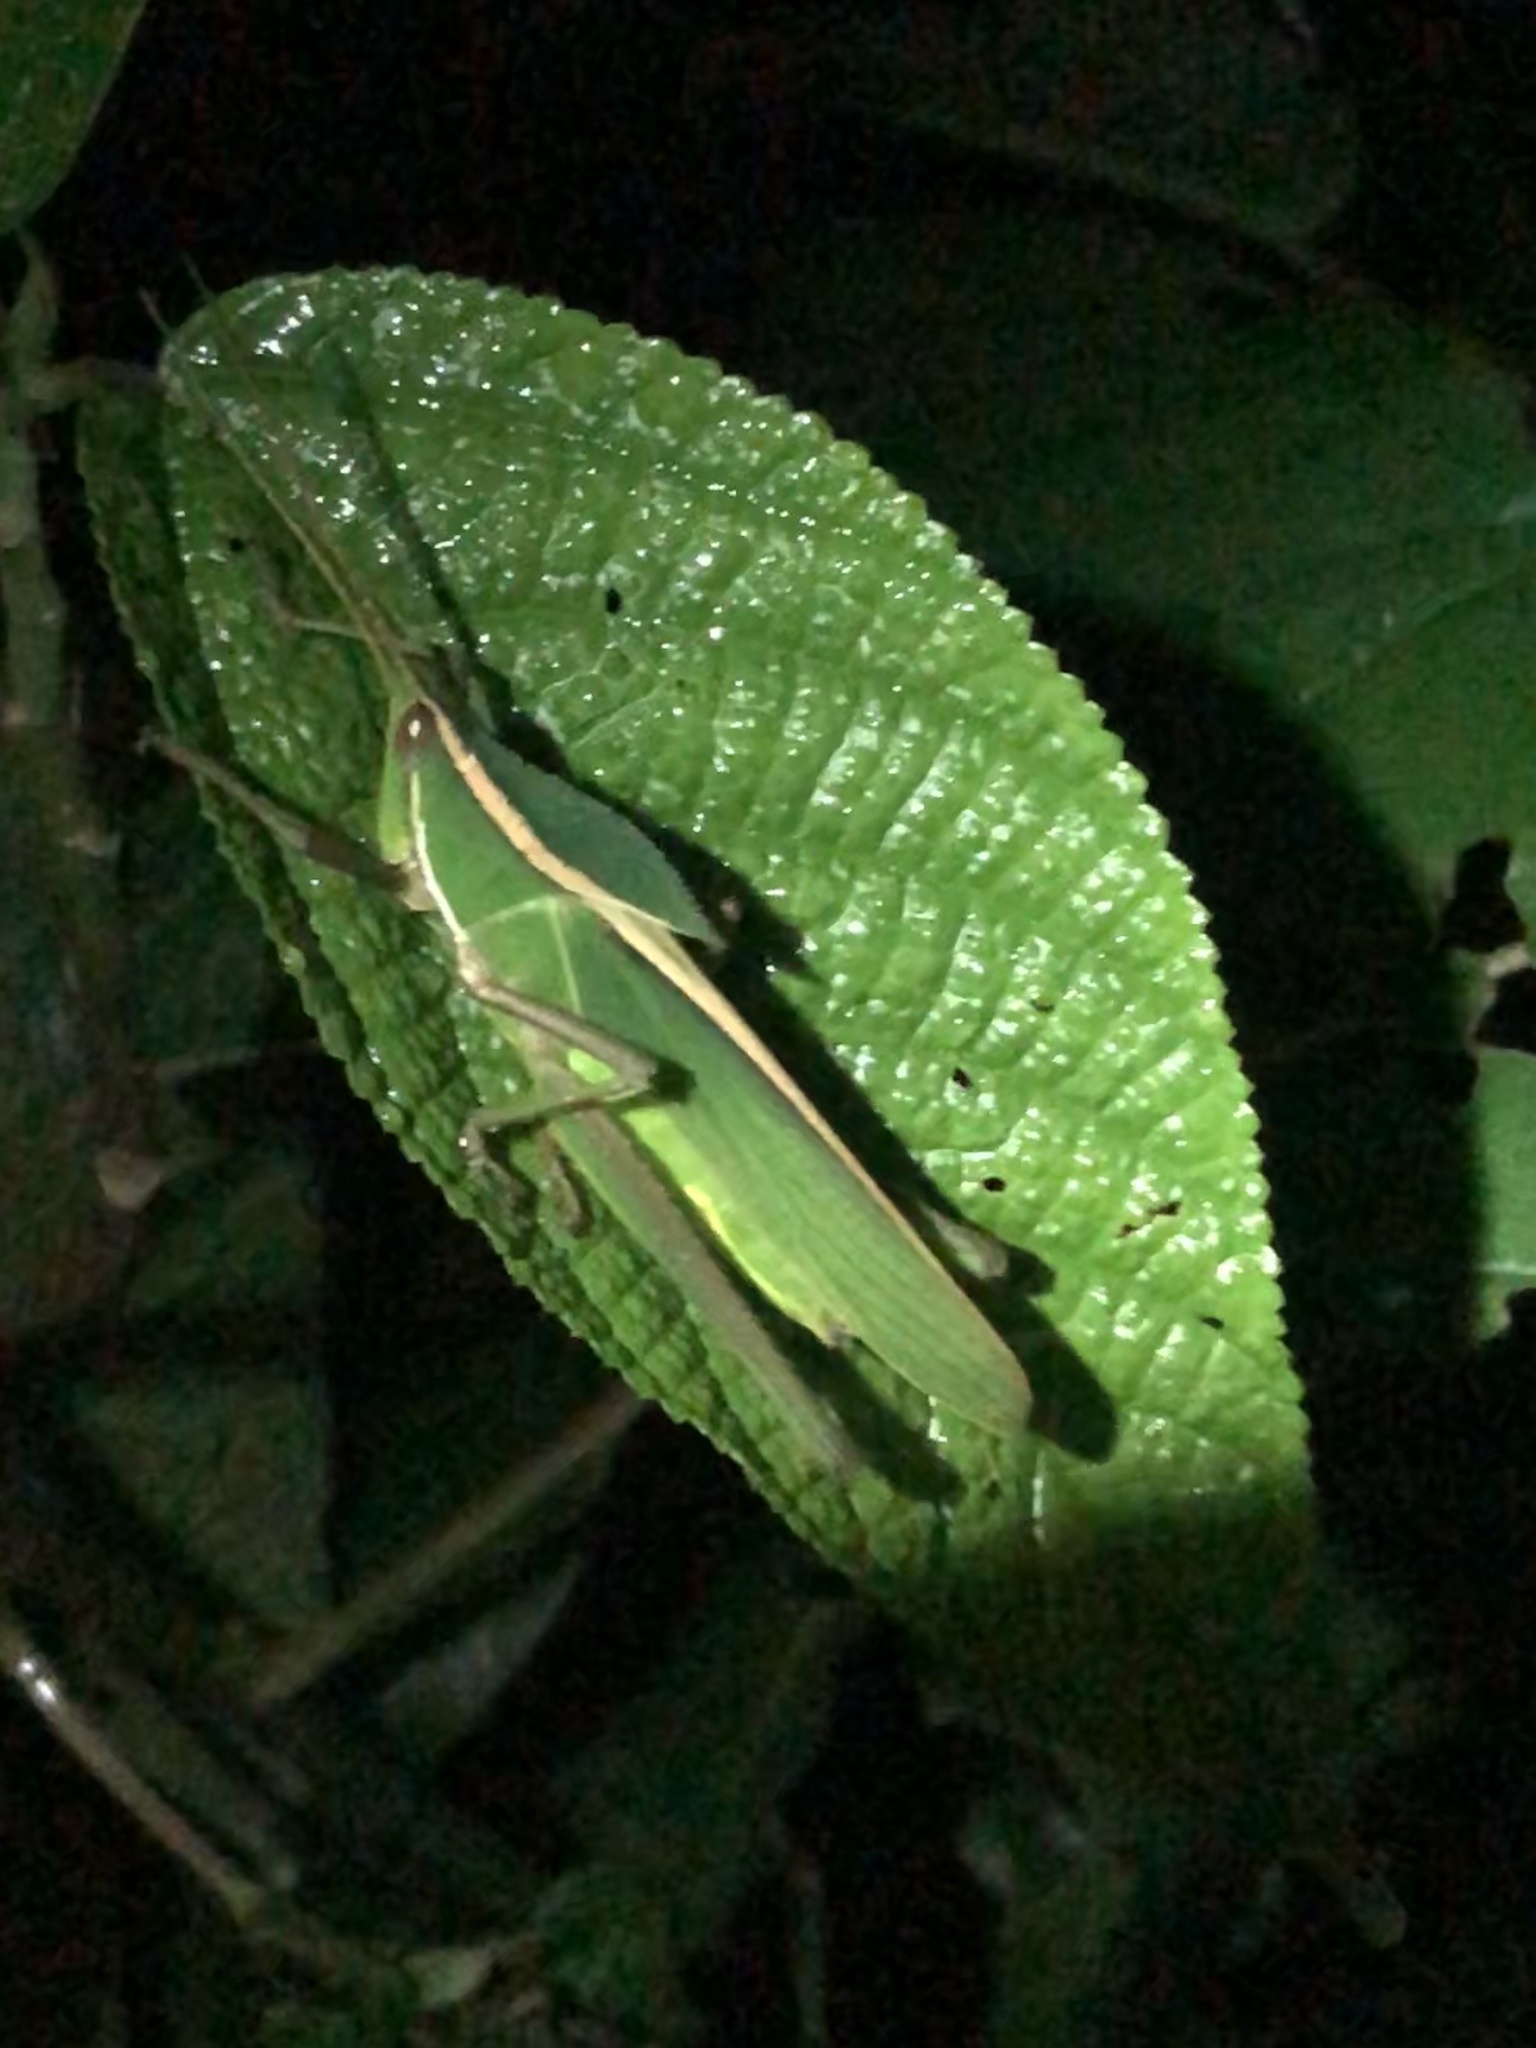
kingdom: Animalia
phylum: Arthropoda
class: Insecta
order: Orthoptera
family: Romaleidae
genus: Prionolopha
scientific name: Prionolopha serrata
